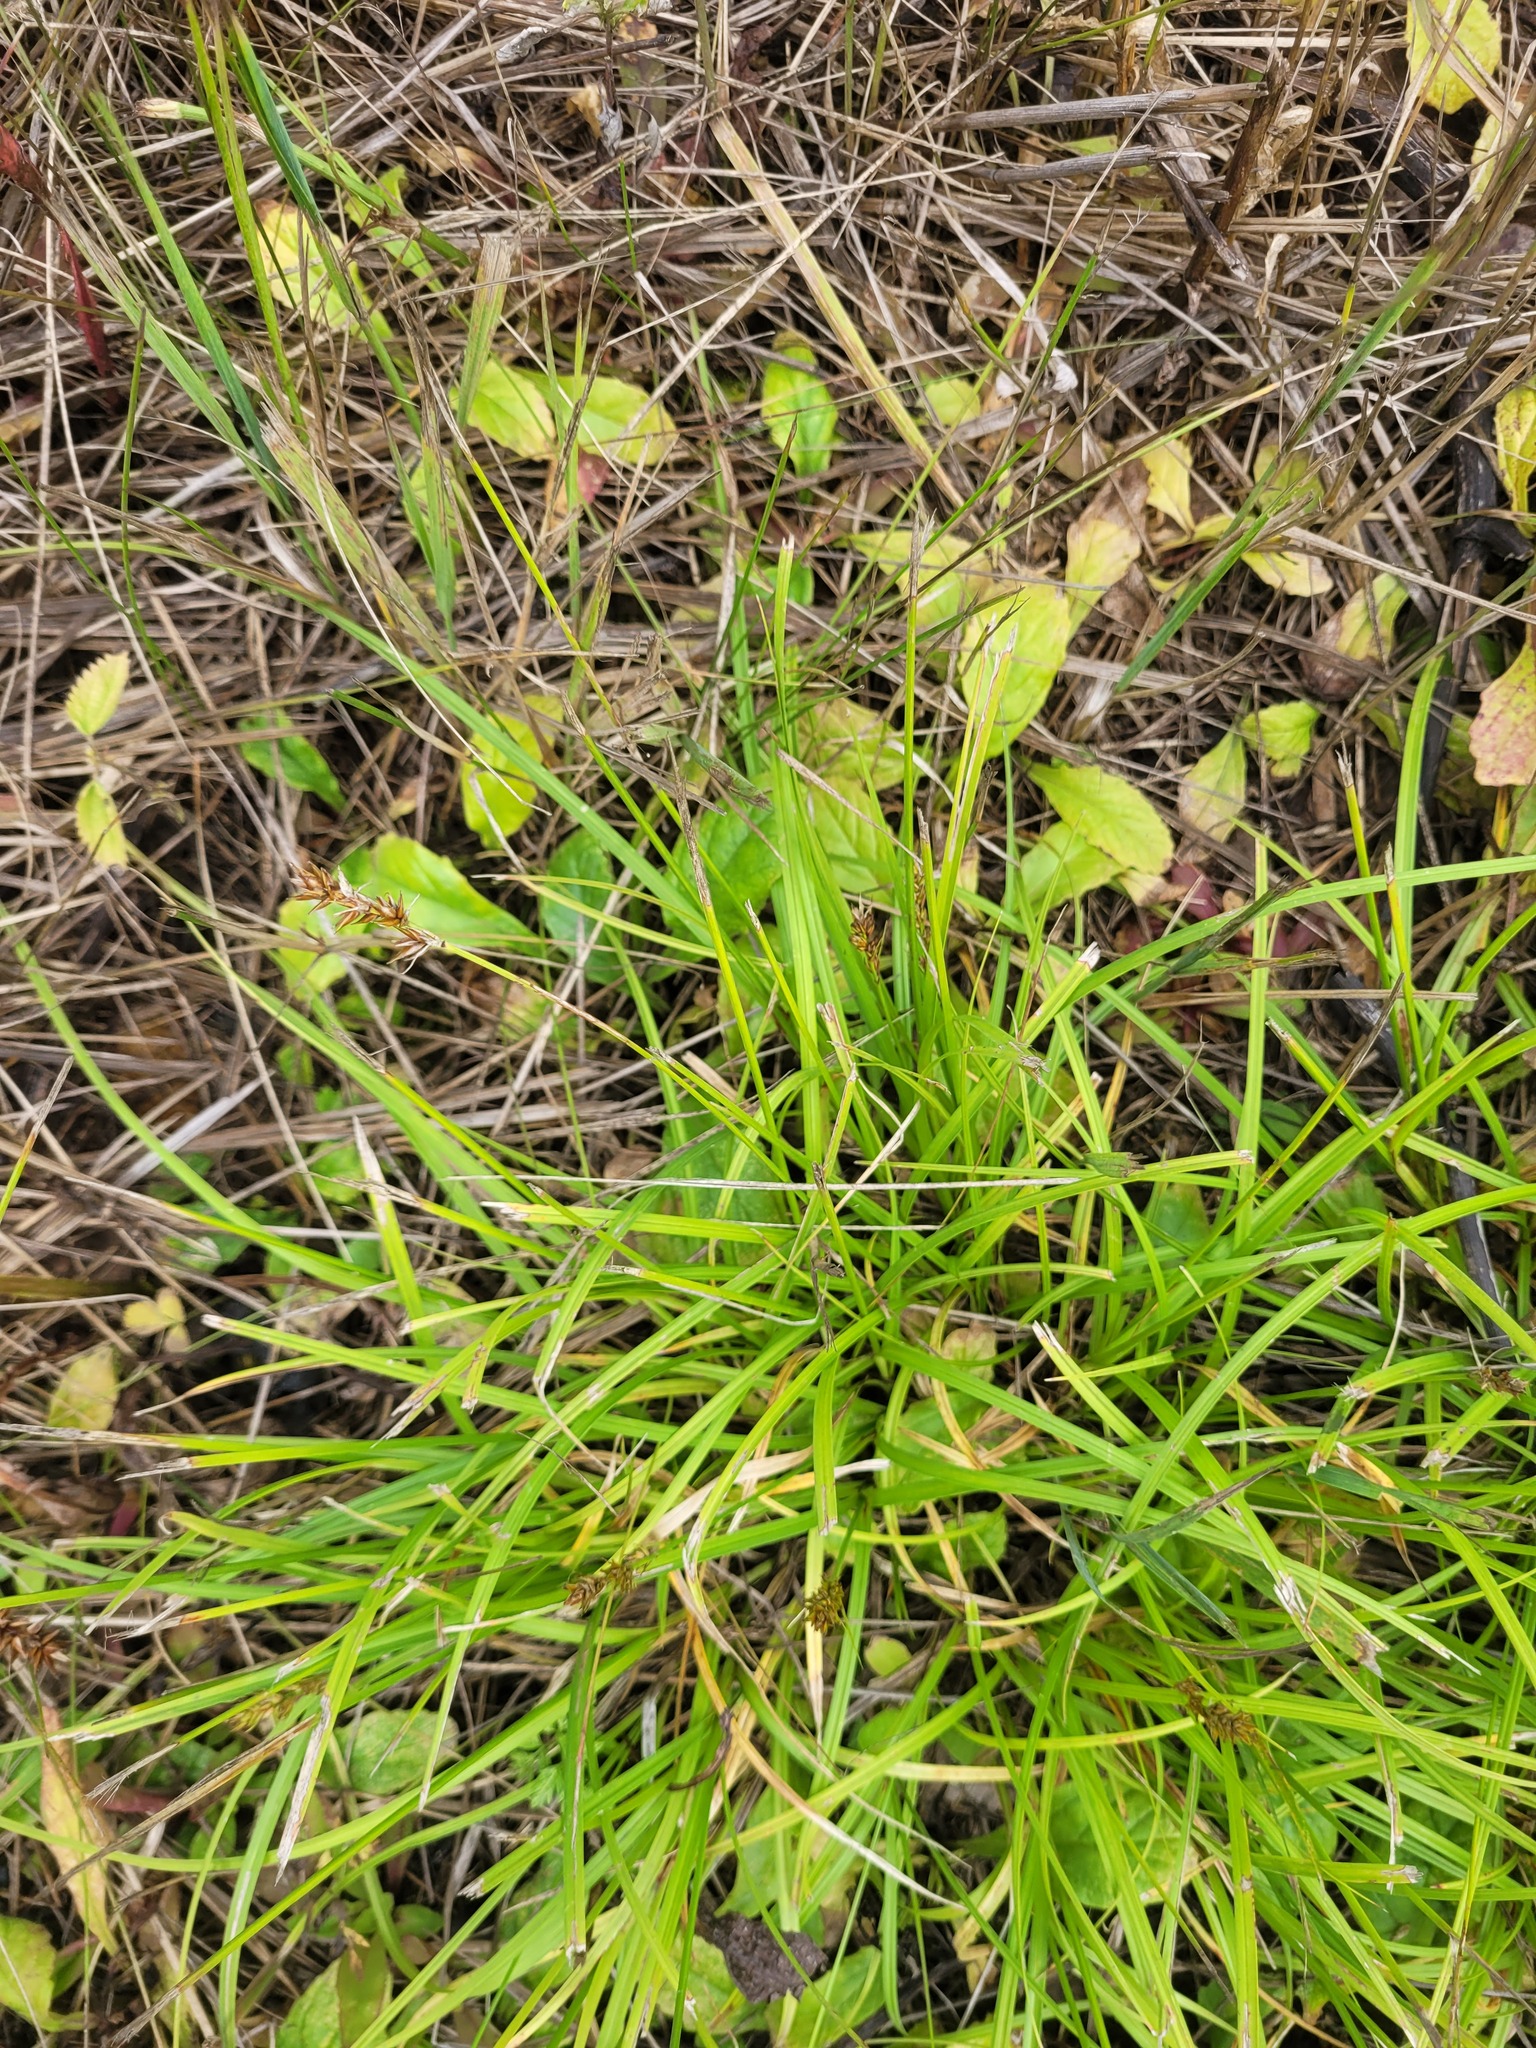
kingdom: Plantae
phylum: Tracheophyta
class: Liliopsida
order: Poales
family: Cyperaceae
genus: Carex
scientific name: Carex spicata
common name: Spiked sedge
